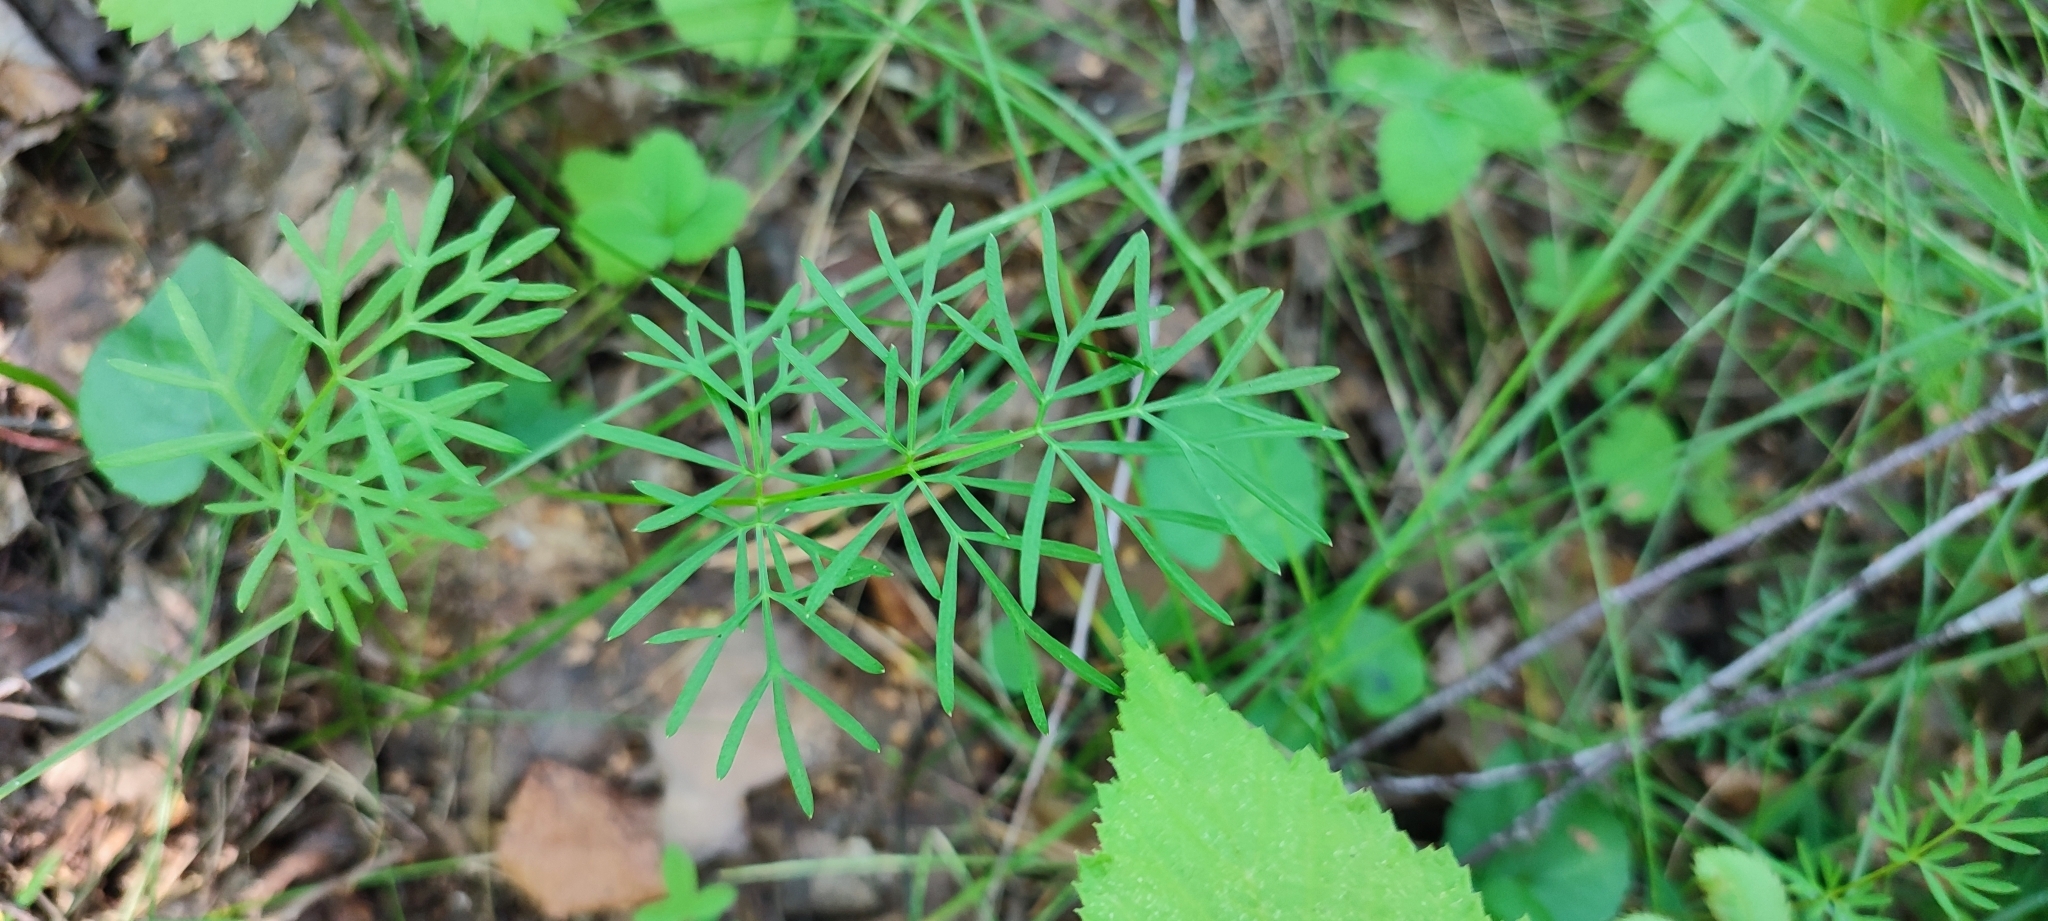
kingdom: Plantae
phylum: Tracheophyta
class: Magnoliopsida
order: Apiales
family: Apiaceae
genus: Kadenia
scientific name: Kadenia dubia
